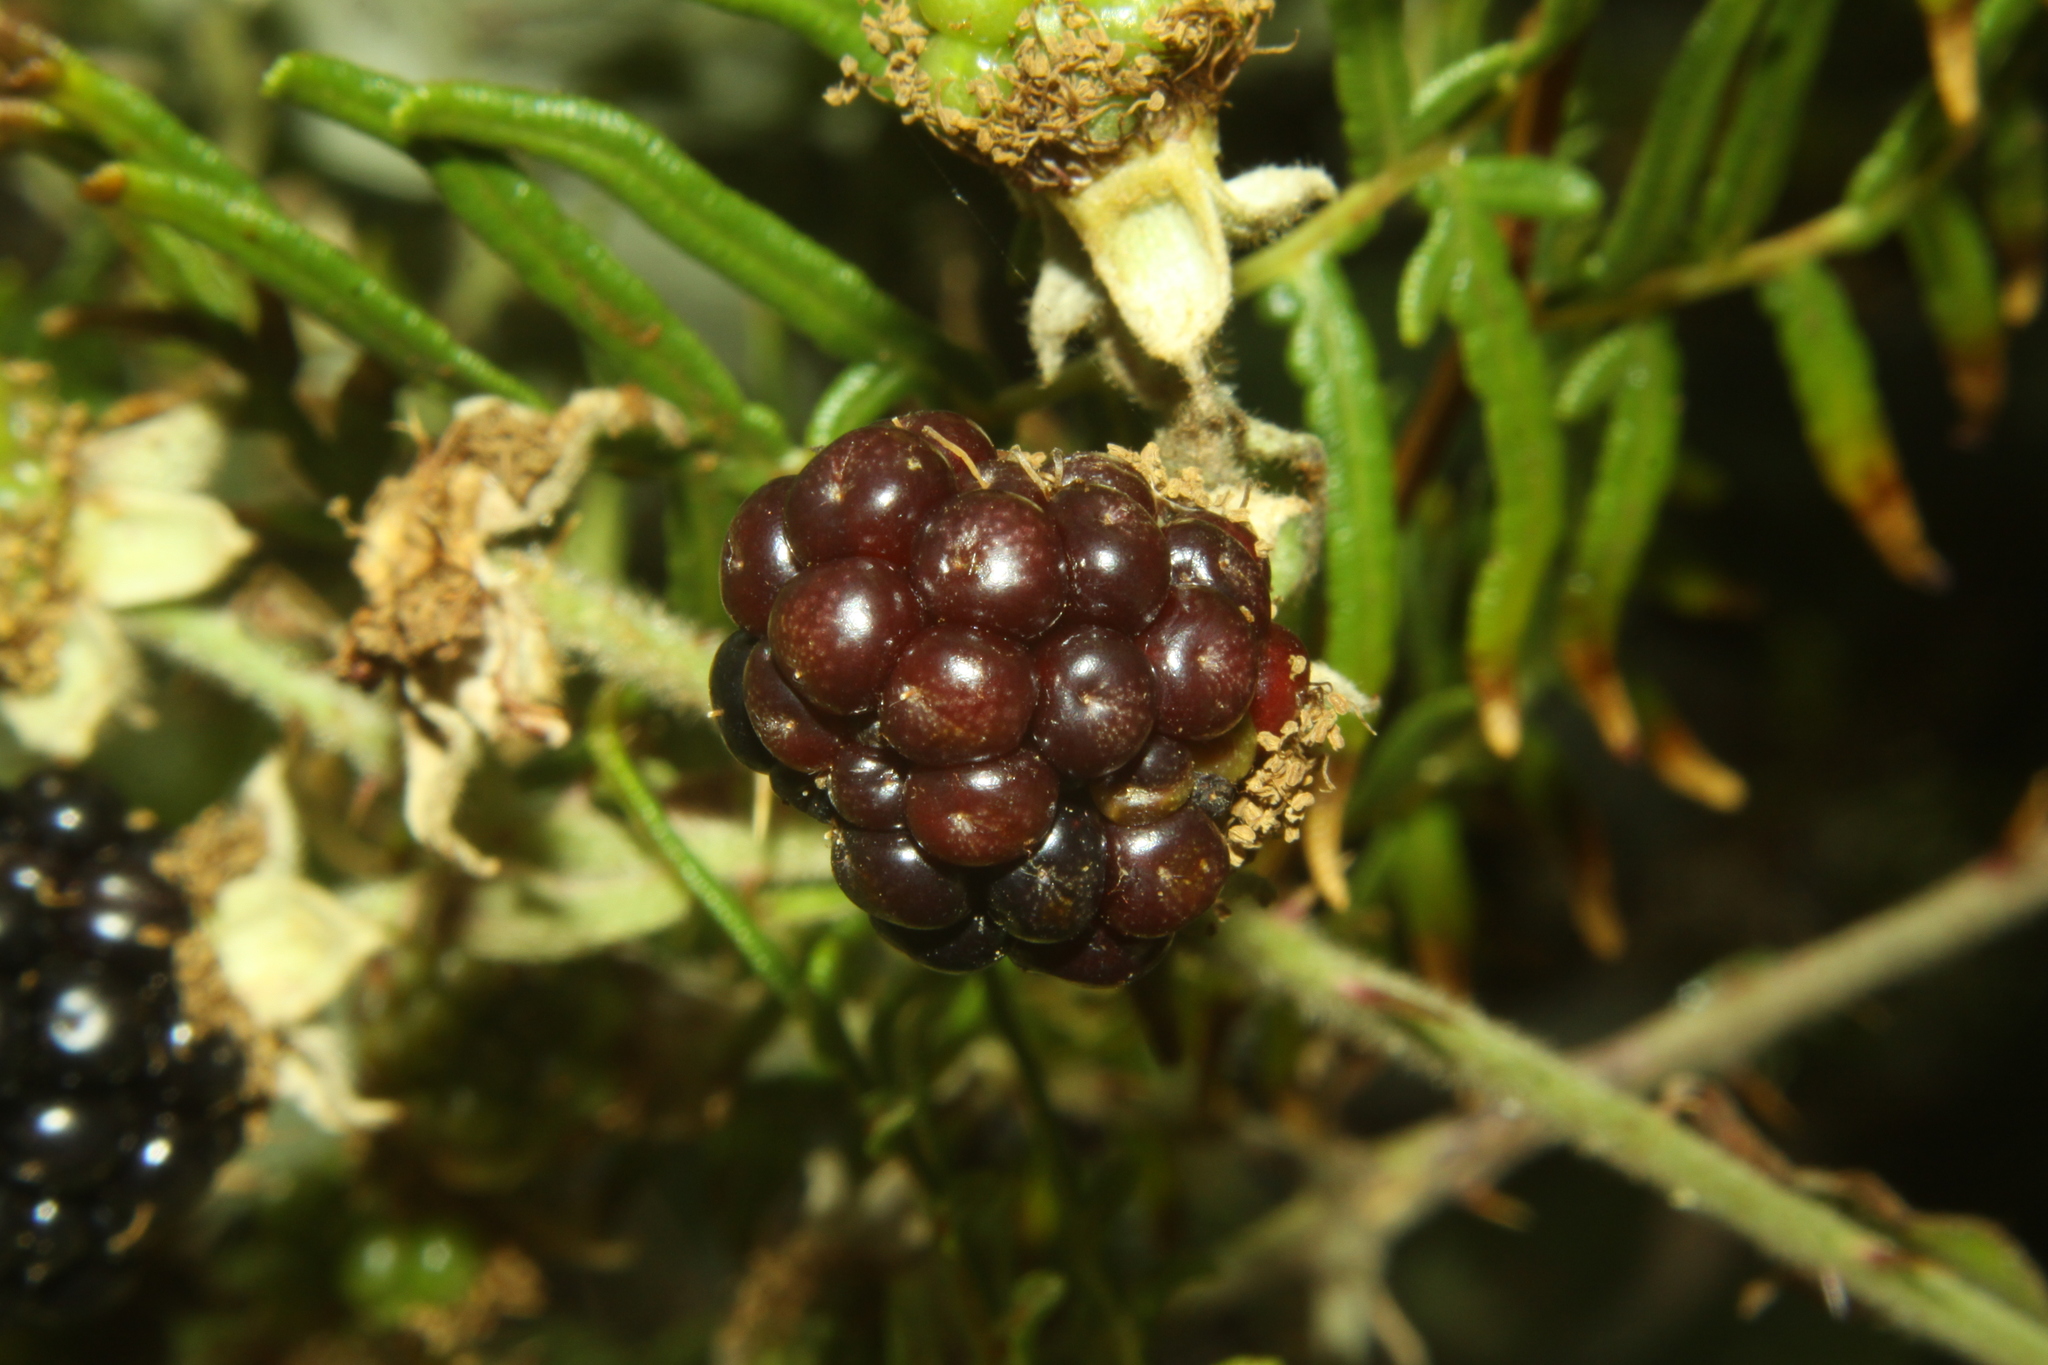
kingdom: Plantae
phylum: Tracheophyta
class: Magnoliopsida
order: Rosales
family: Rosaceae
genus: Rubus
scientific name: Rubus
